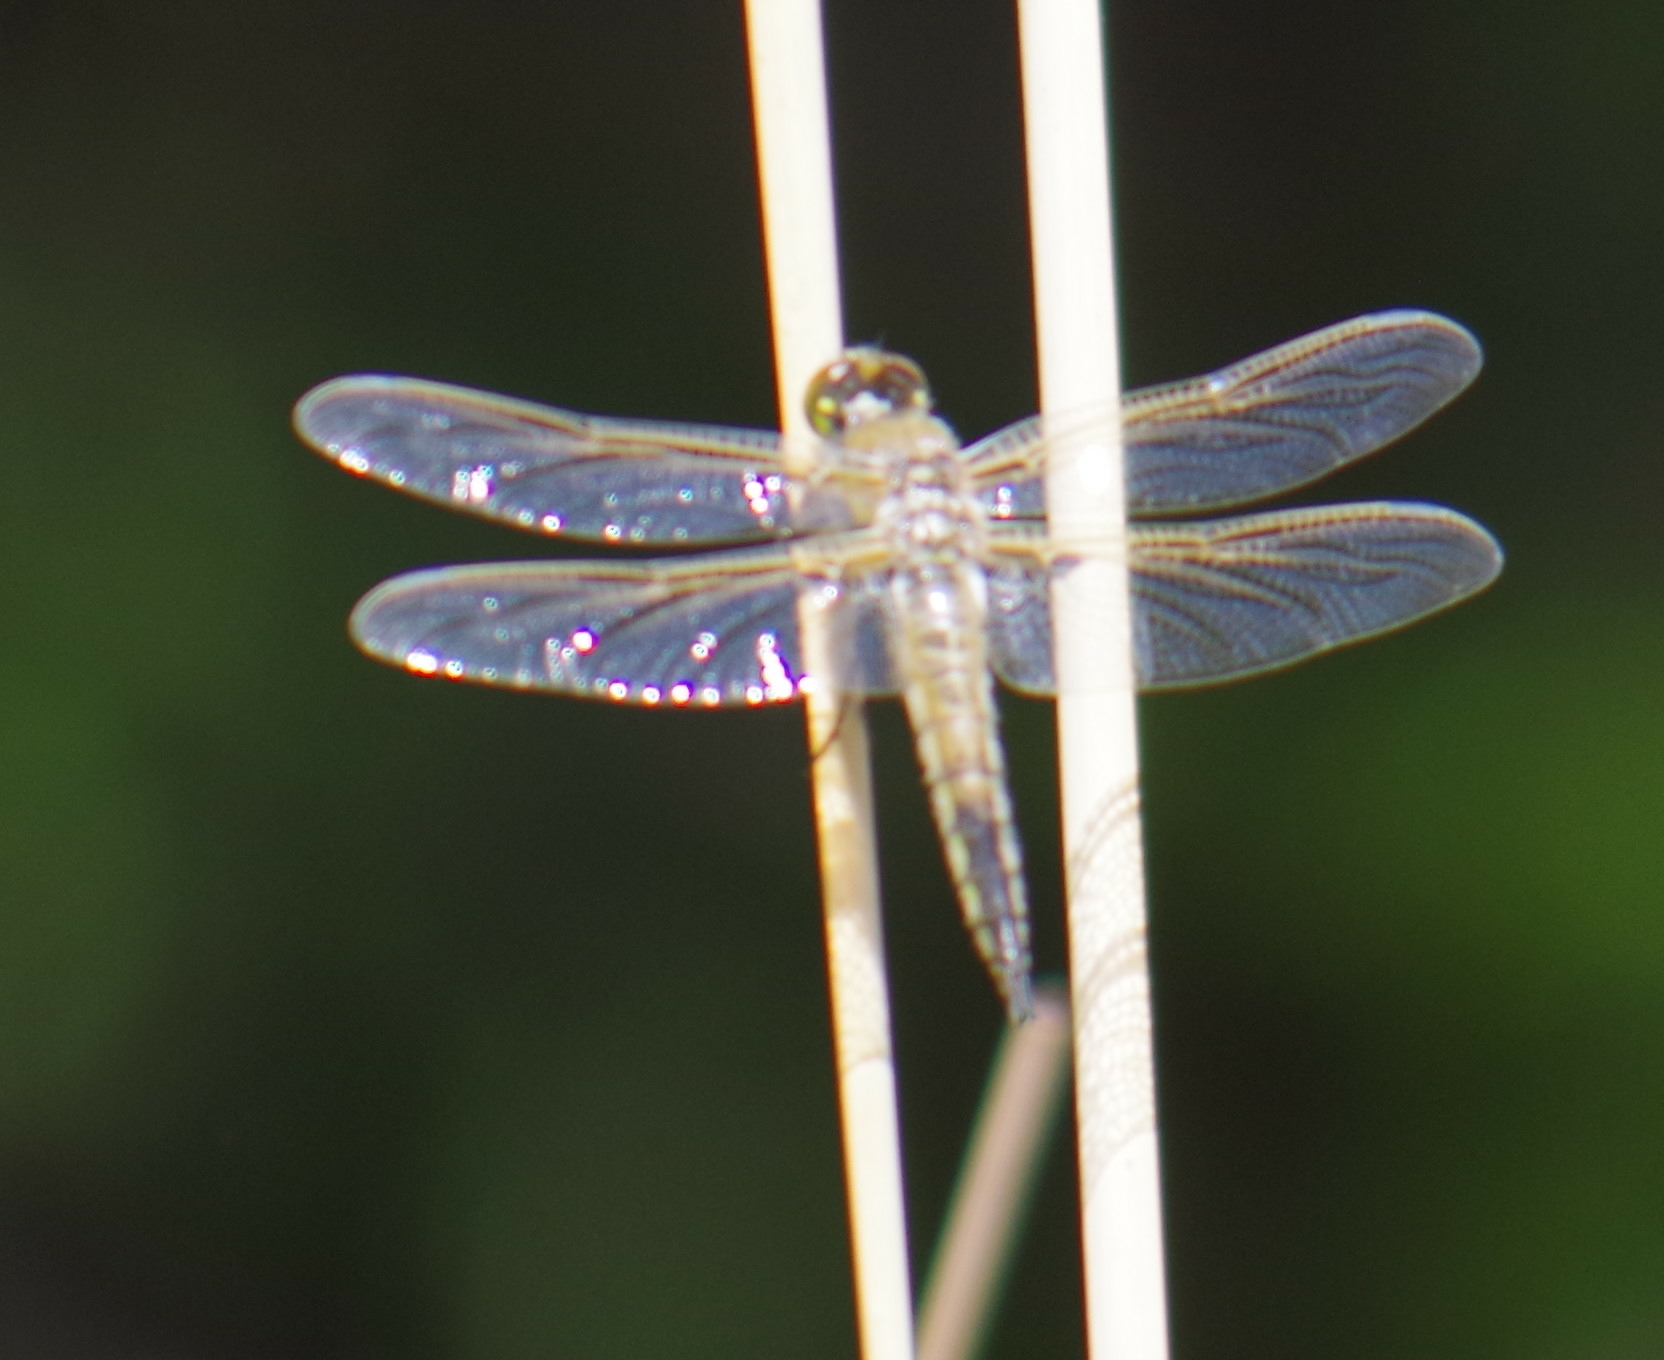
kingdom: Animalia
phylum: Arthropoda
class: Insecta
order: Odonata
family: Libellulidae
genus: Libellula
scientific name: Libellula quadrimaculata
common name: Four-spotted chaser
